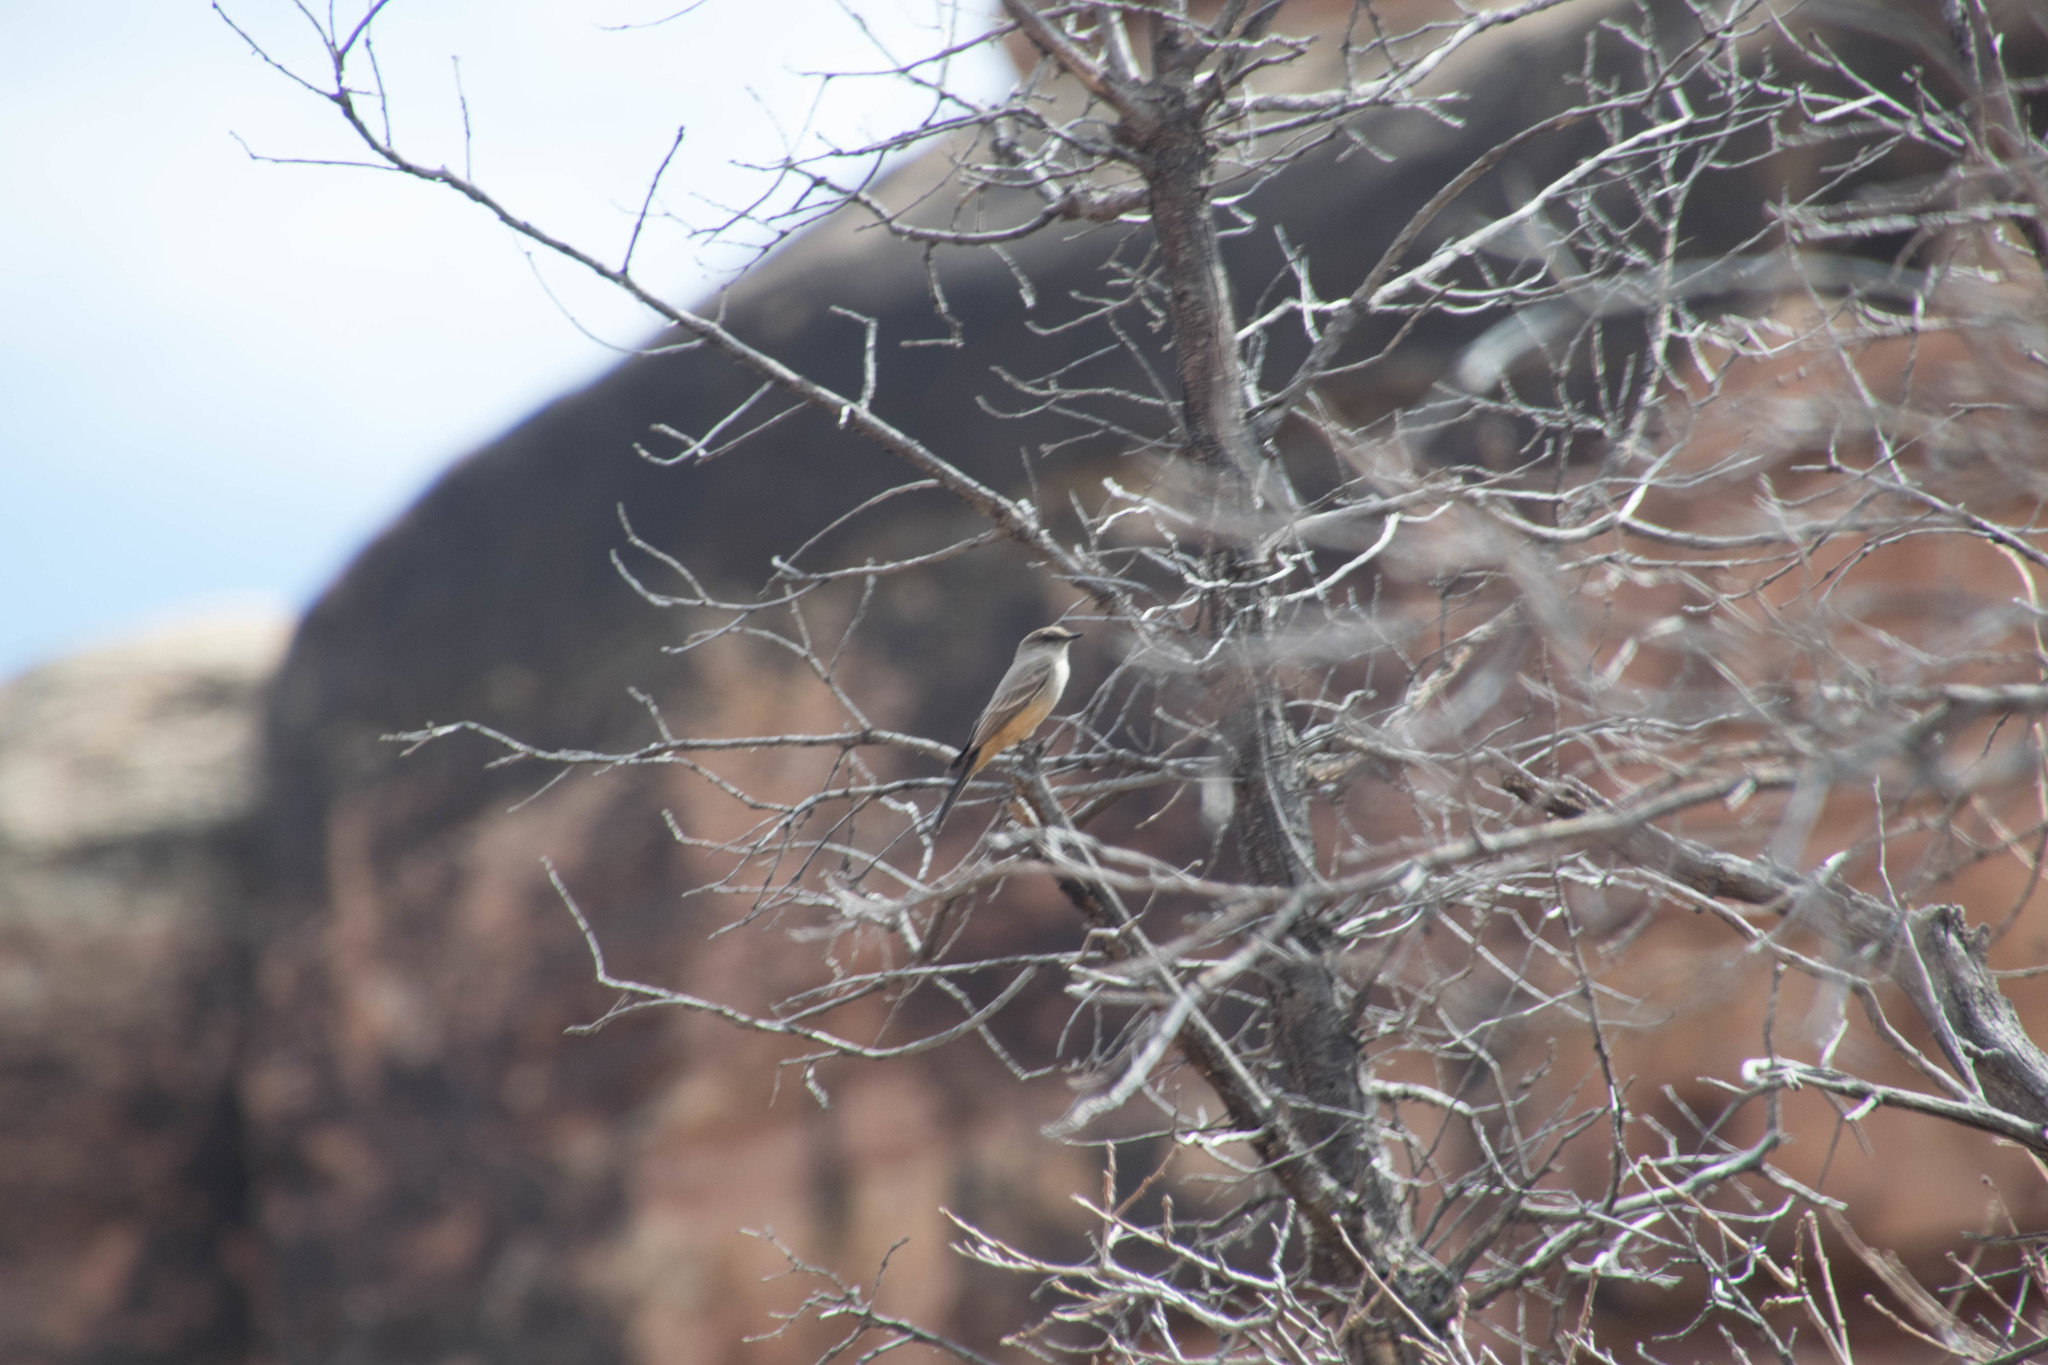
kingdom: Animalia
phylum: Chordata
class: Aves
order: Passeriformes
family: Tyrannidae
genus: Sayornis
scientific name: Sayornis saya
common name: Say's phoebe
